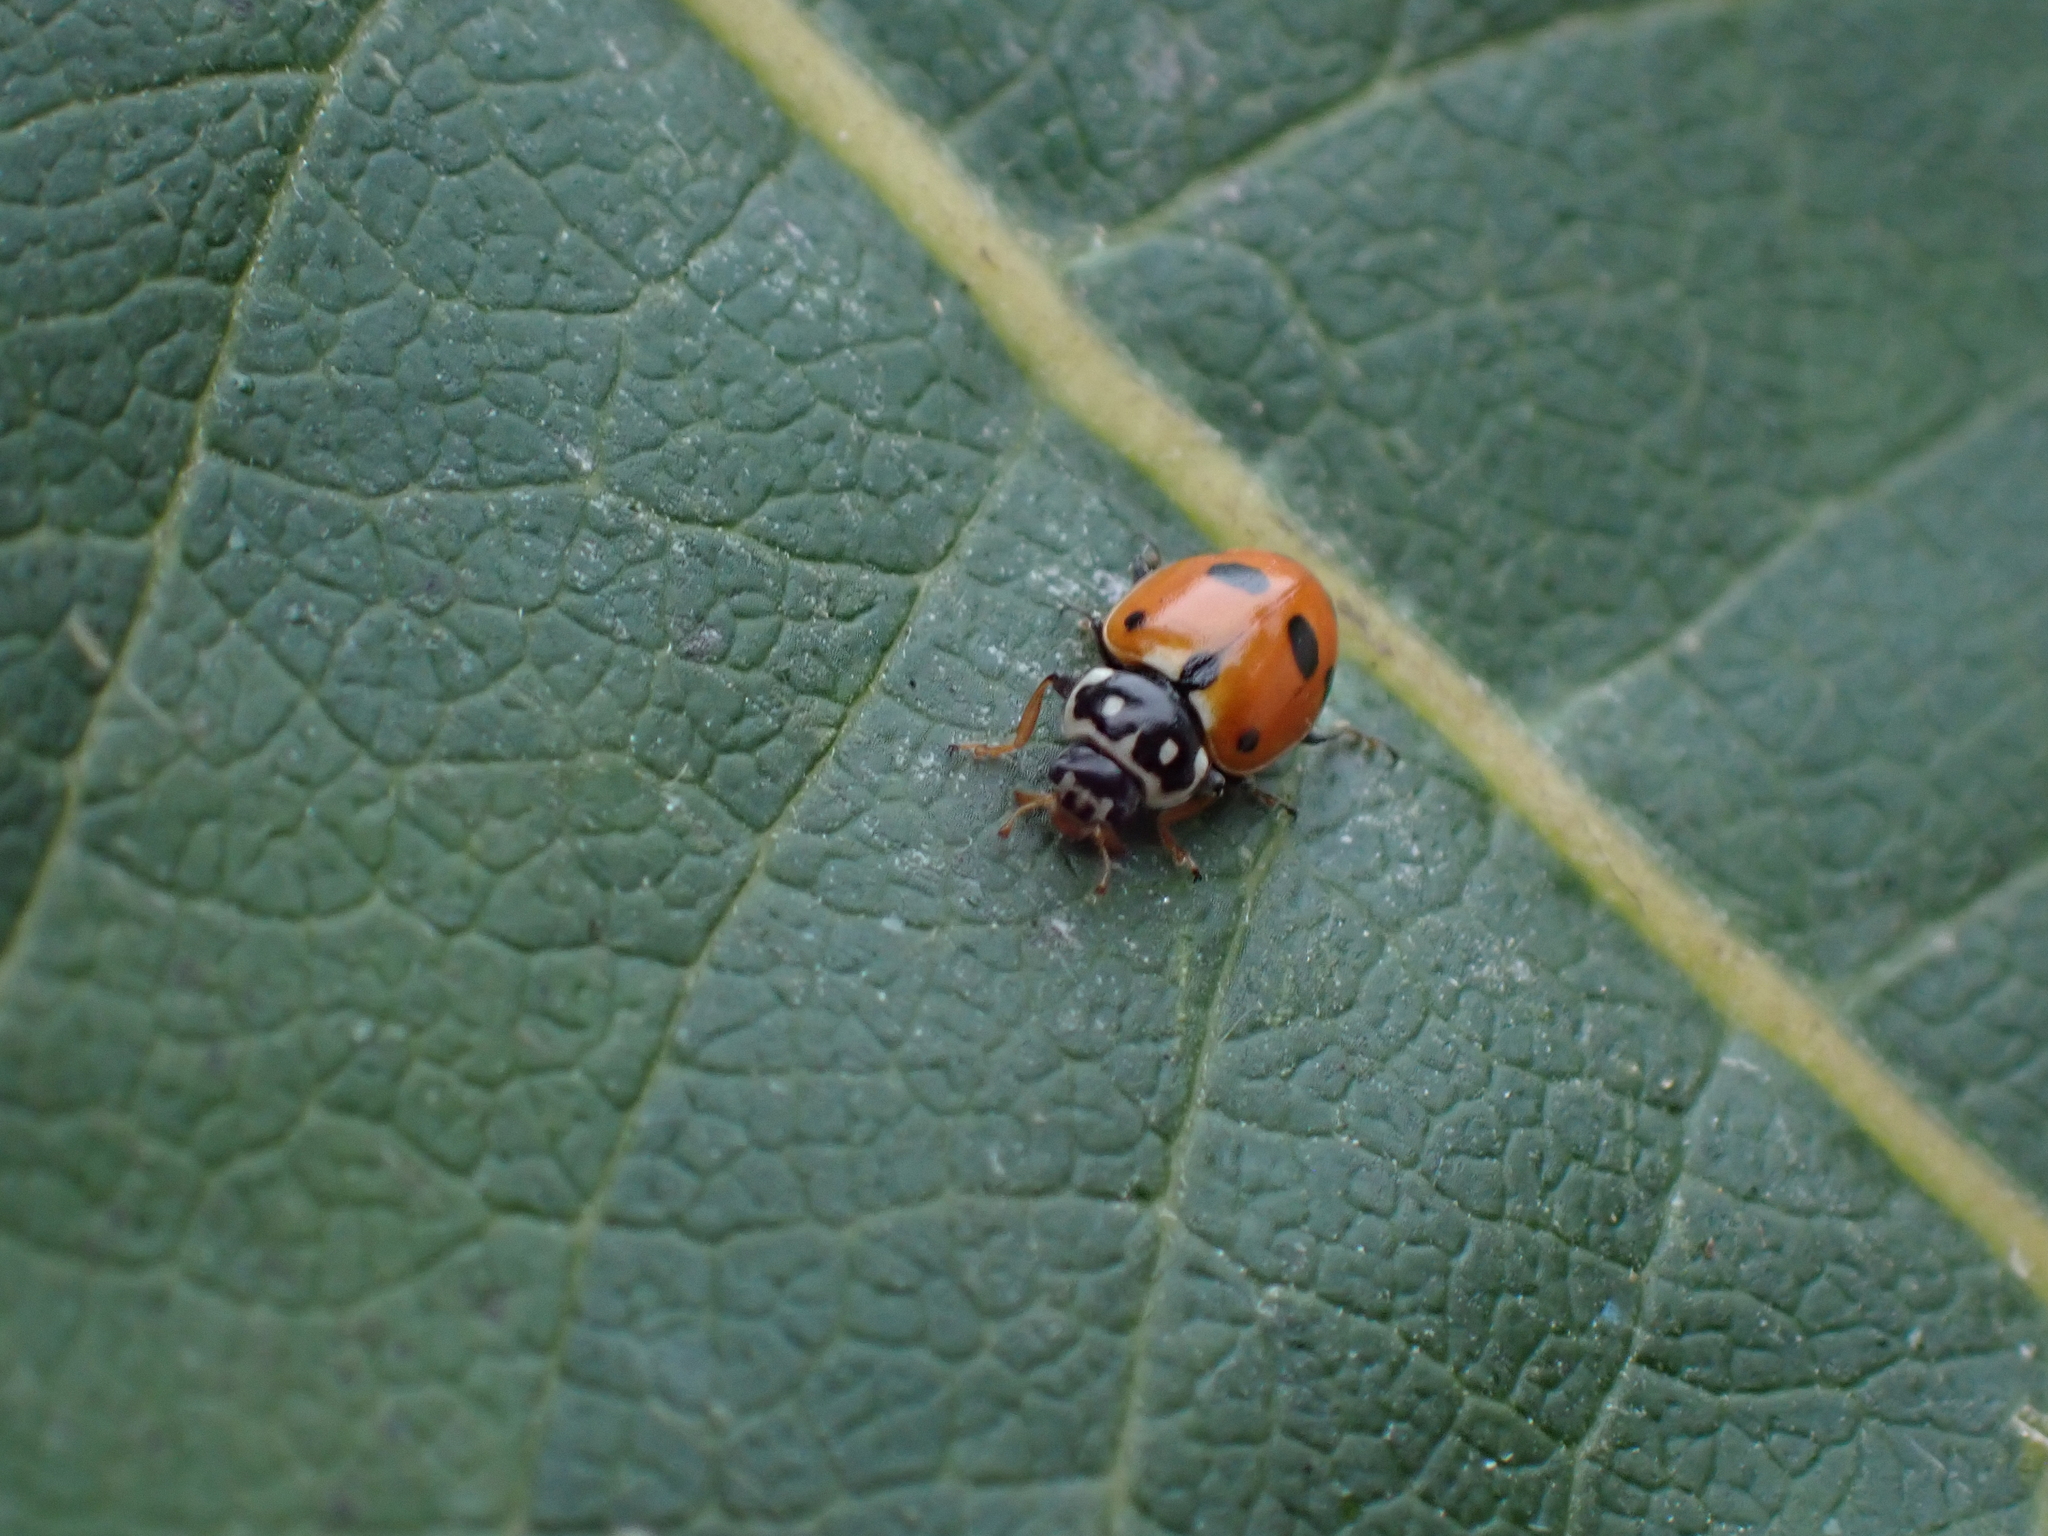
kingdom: Animalia
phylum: Arthropoda
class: Insecta
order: Coleoptera
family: Coccinellidae
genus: Hippodamia
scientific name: Hippodamia variegata
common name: Ladybird beetle
